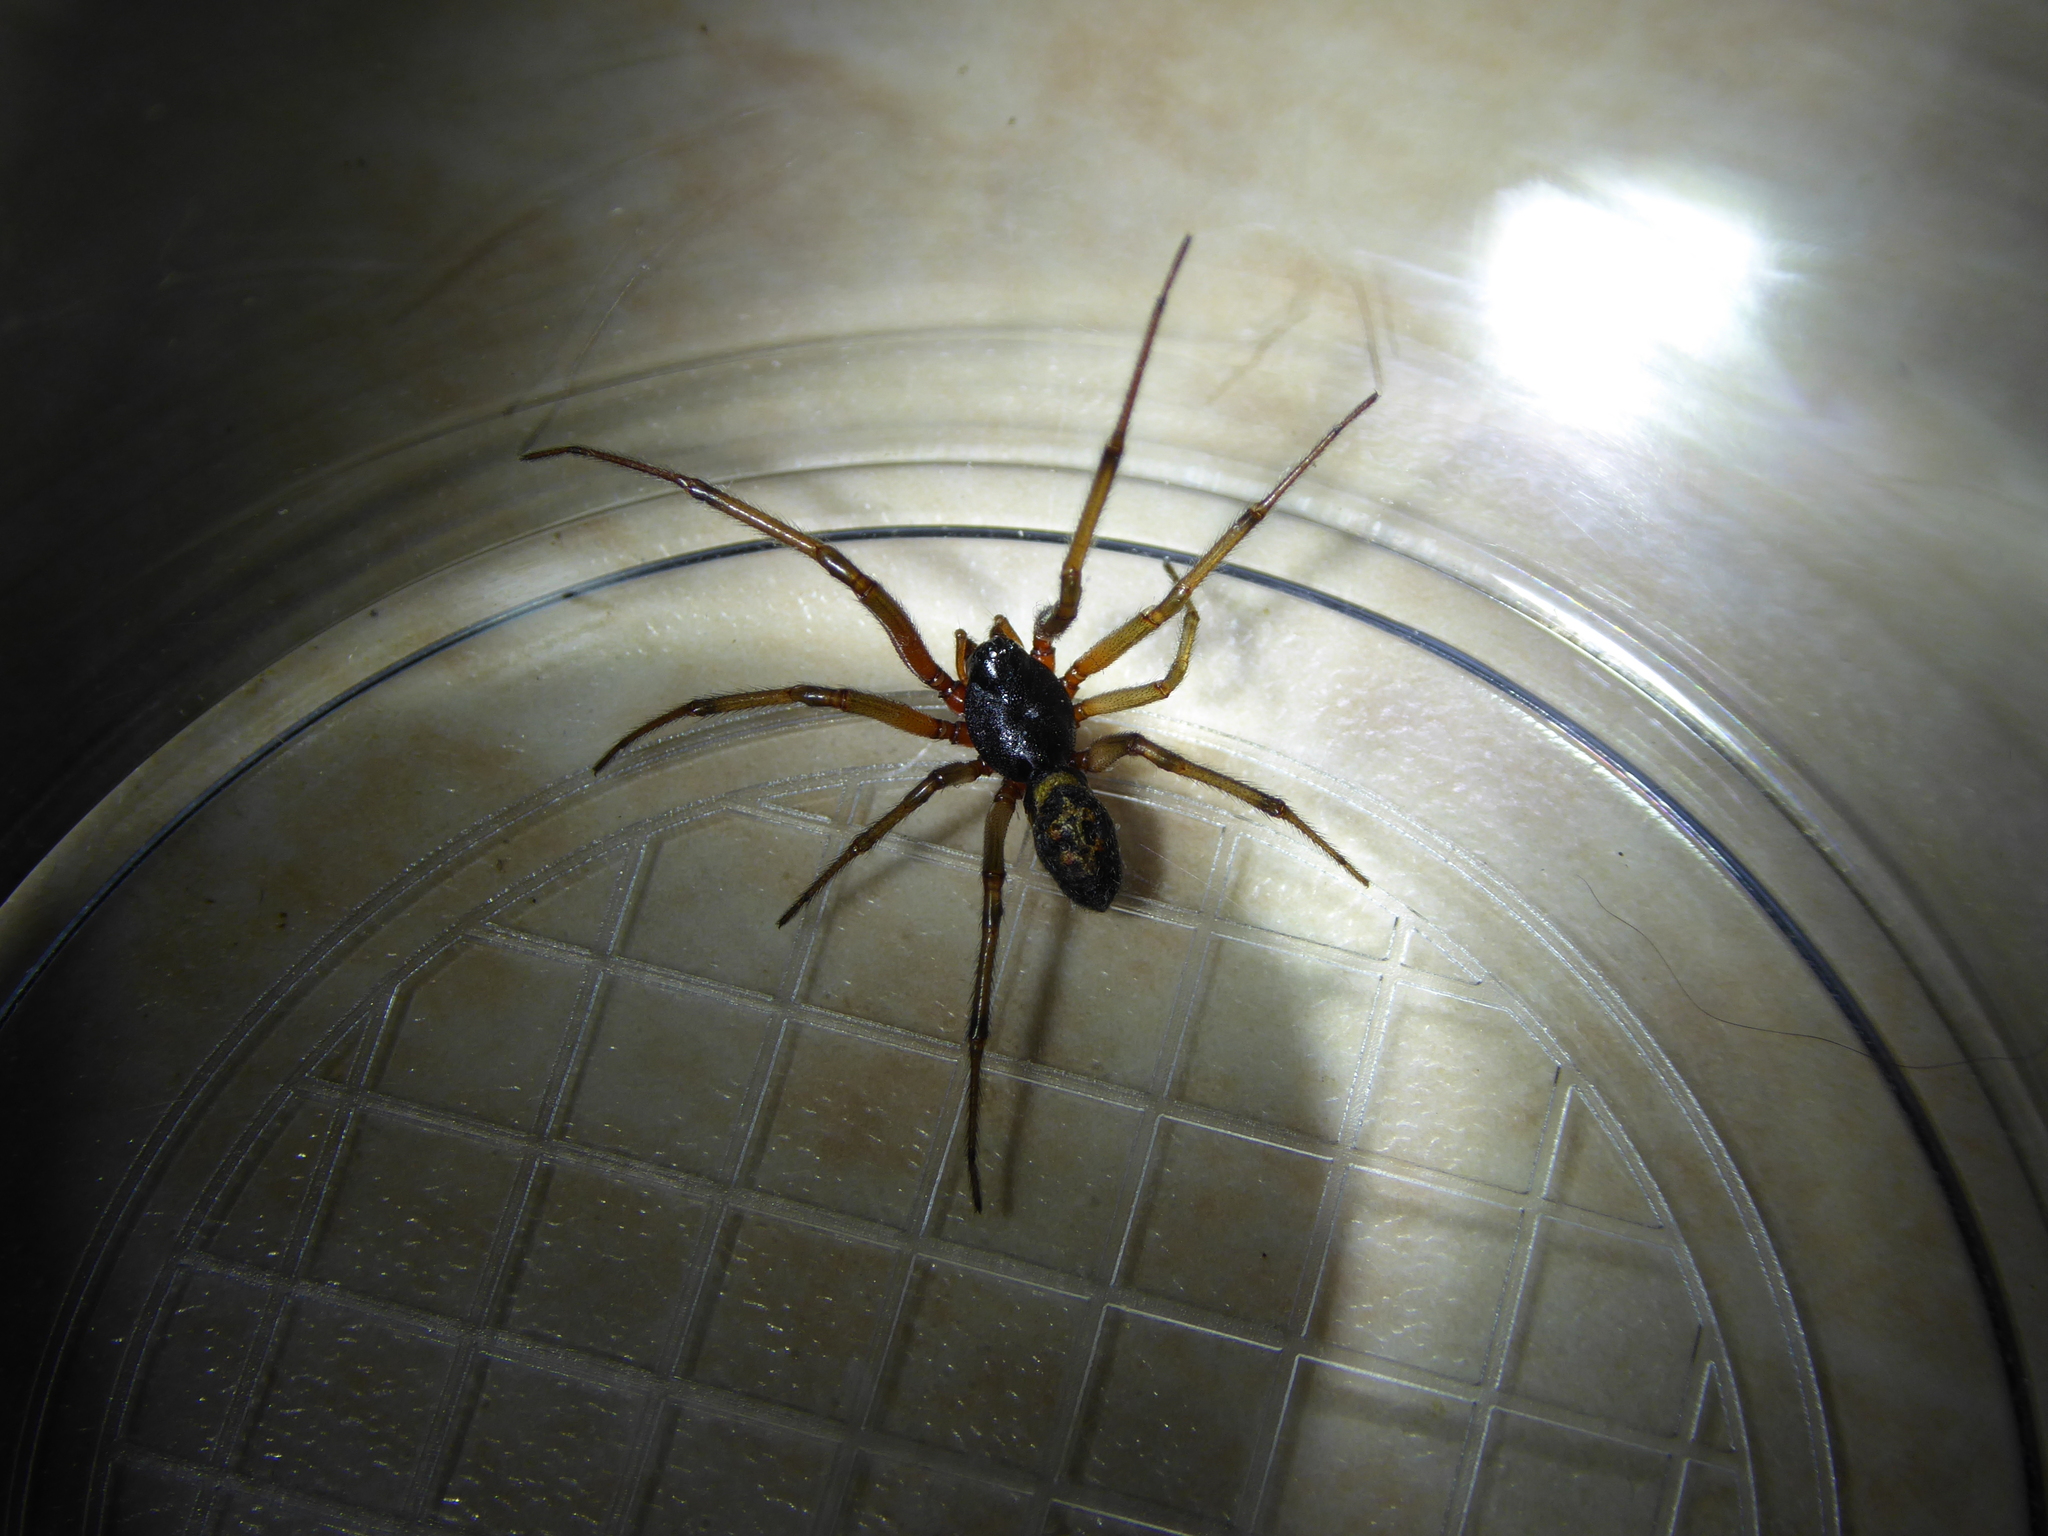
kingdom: Animalia
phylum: Arthropoda
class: Arachnida
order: Araneae
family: Theridiidae
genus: Steatoda
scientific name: Steatoda nobilis
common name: Cobweb weaver
